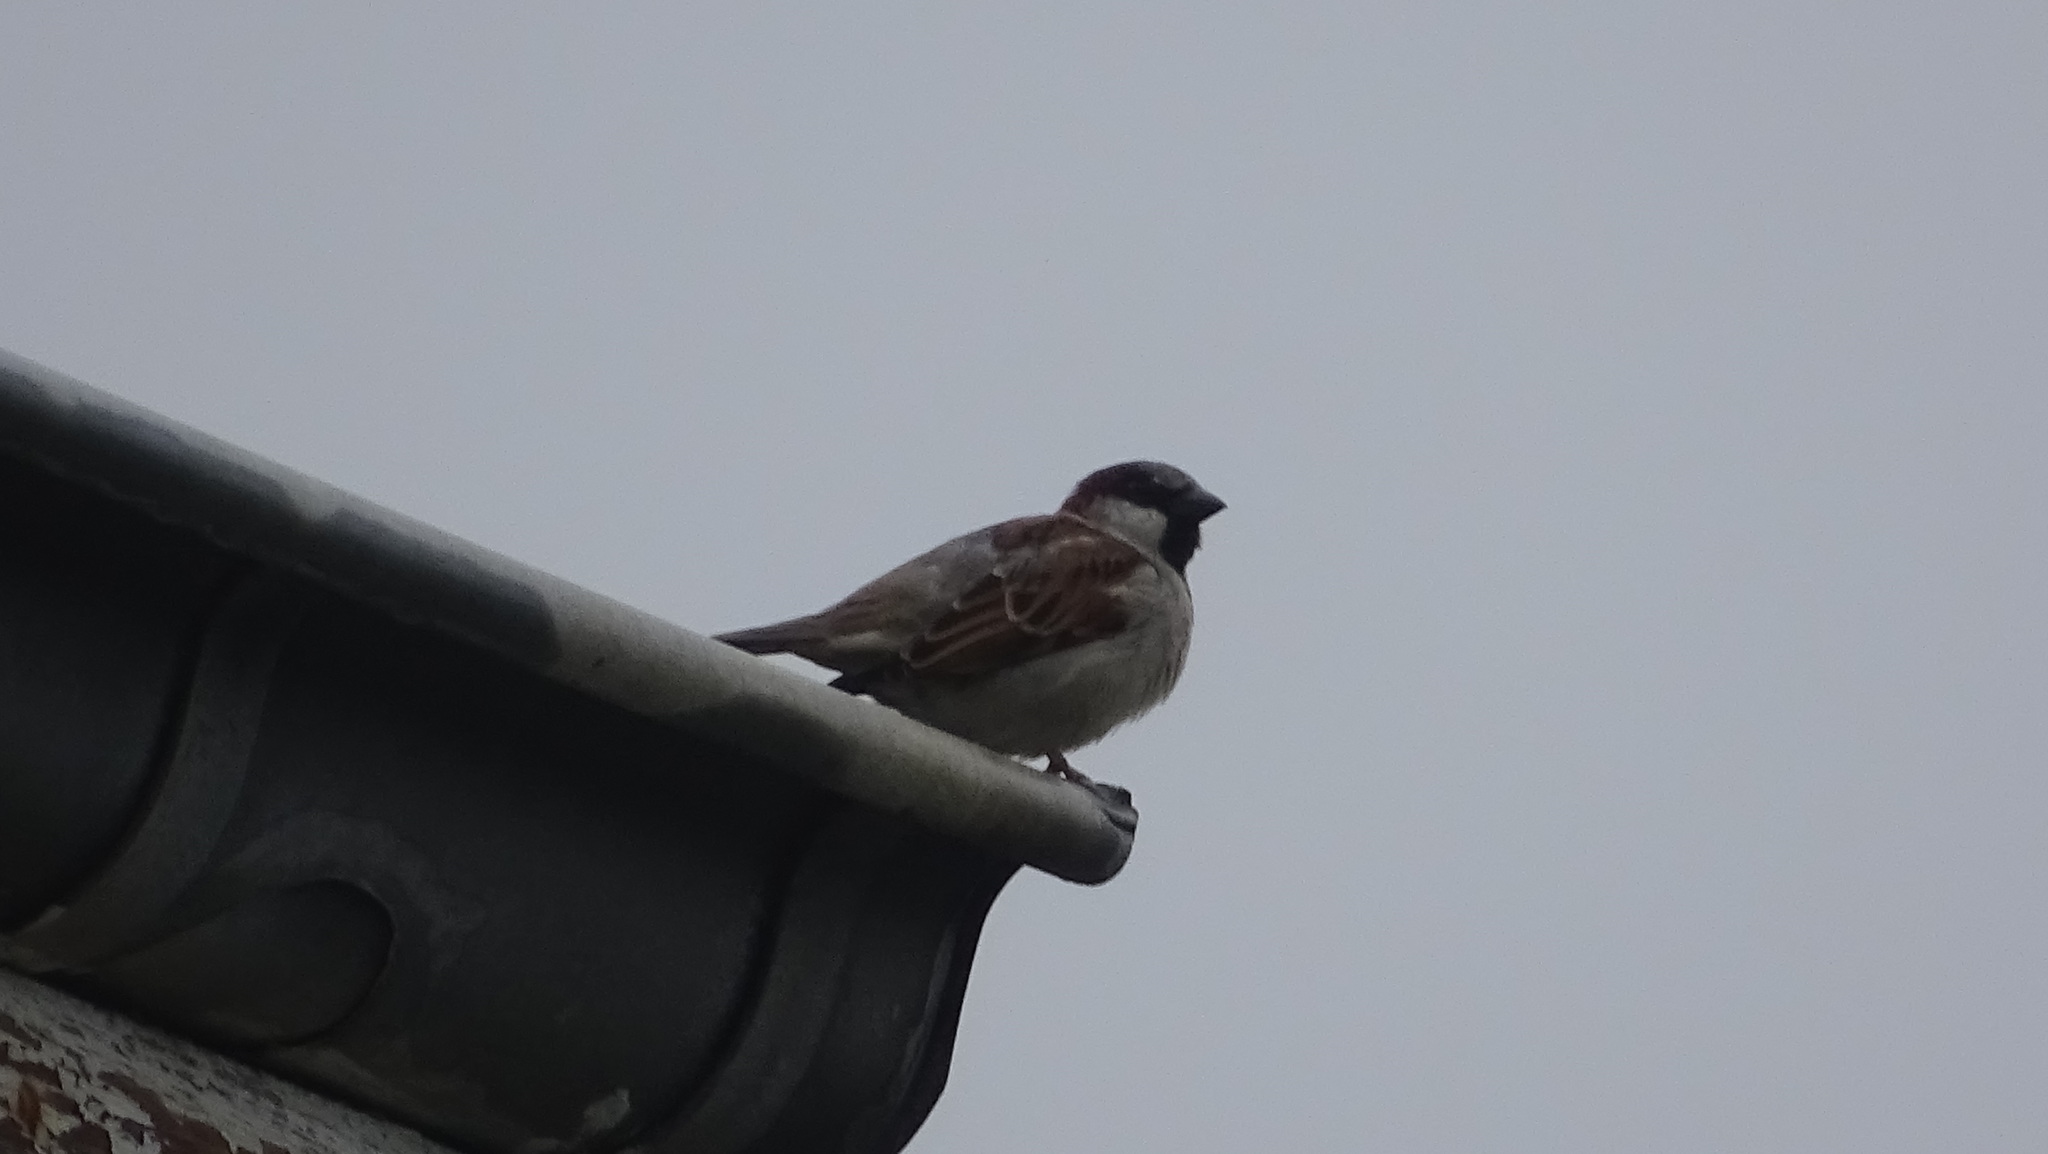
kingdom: Animalia
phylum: Chordata
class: Aves
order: Passeriformes
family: Passeridae
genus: Passer
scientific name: Passer domesticus
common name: House sparrow
